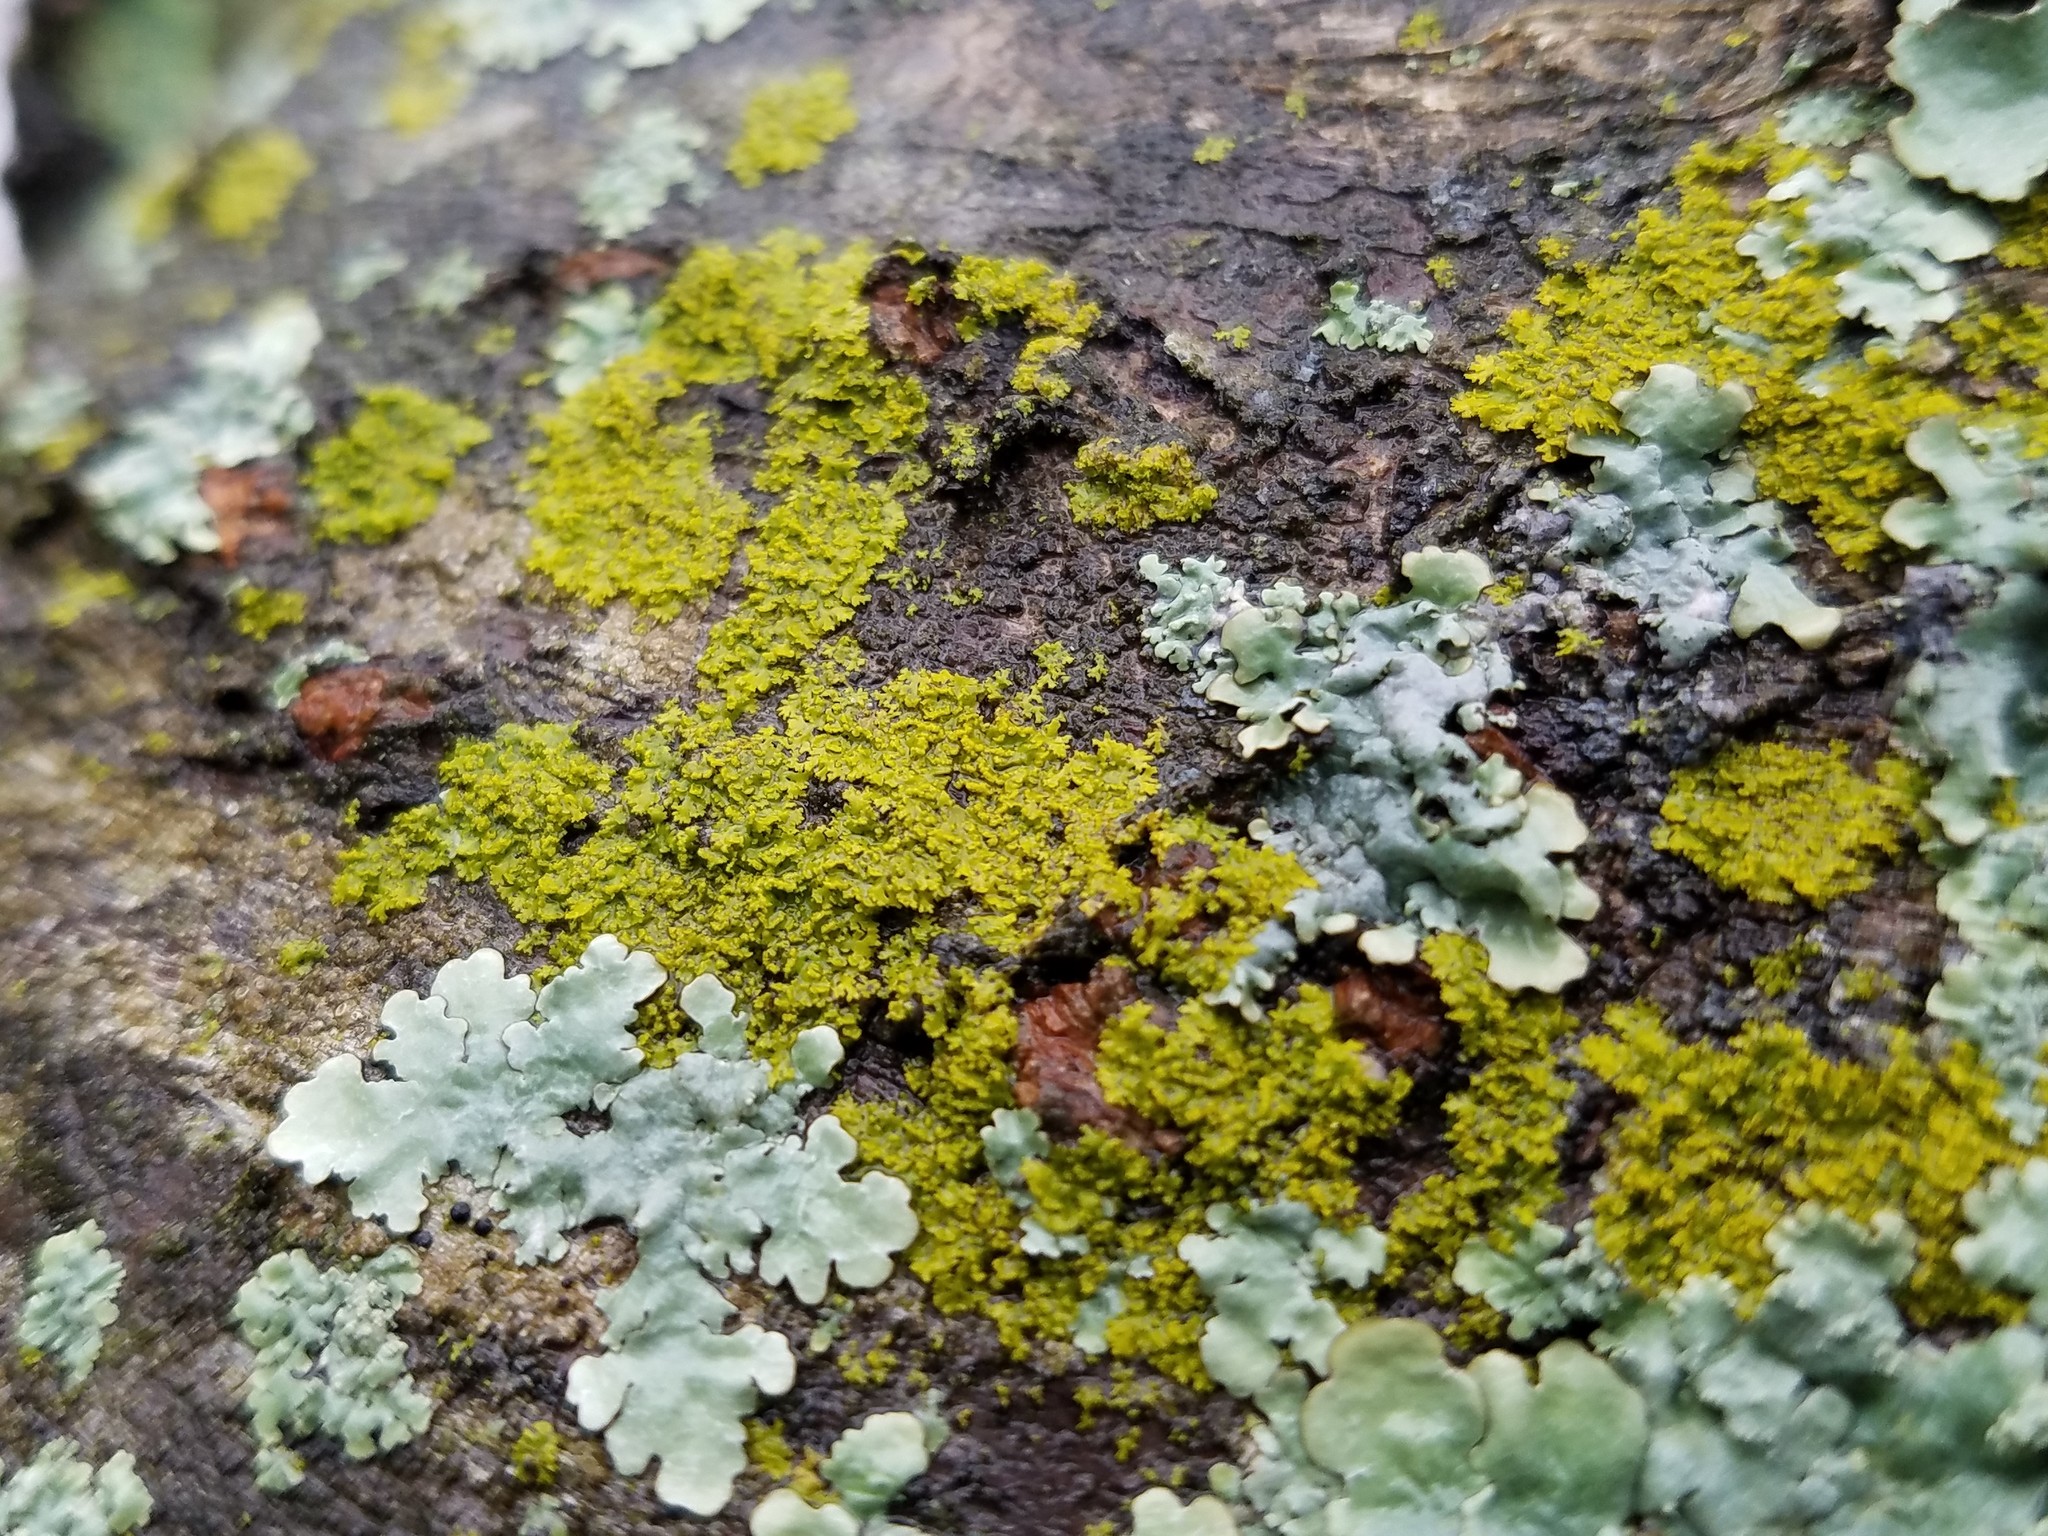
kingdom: Fungi
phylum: Ascomycota
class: Candelariomycetes
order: Candelariales
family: Candelariaceae
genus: Candelaria
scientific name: Candelaria concolor
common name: Candleflame lichen
